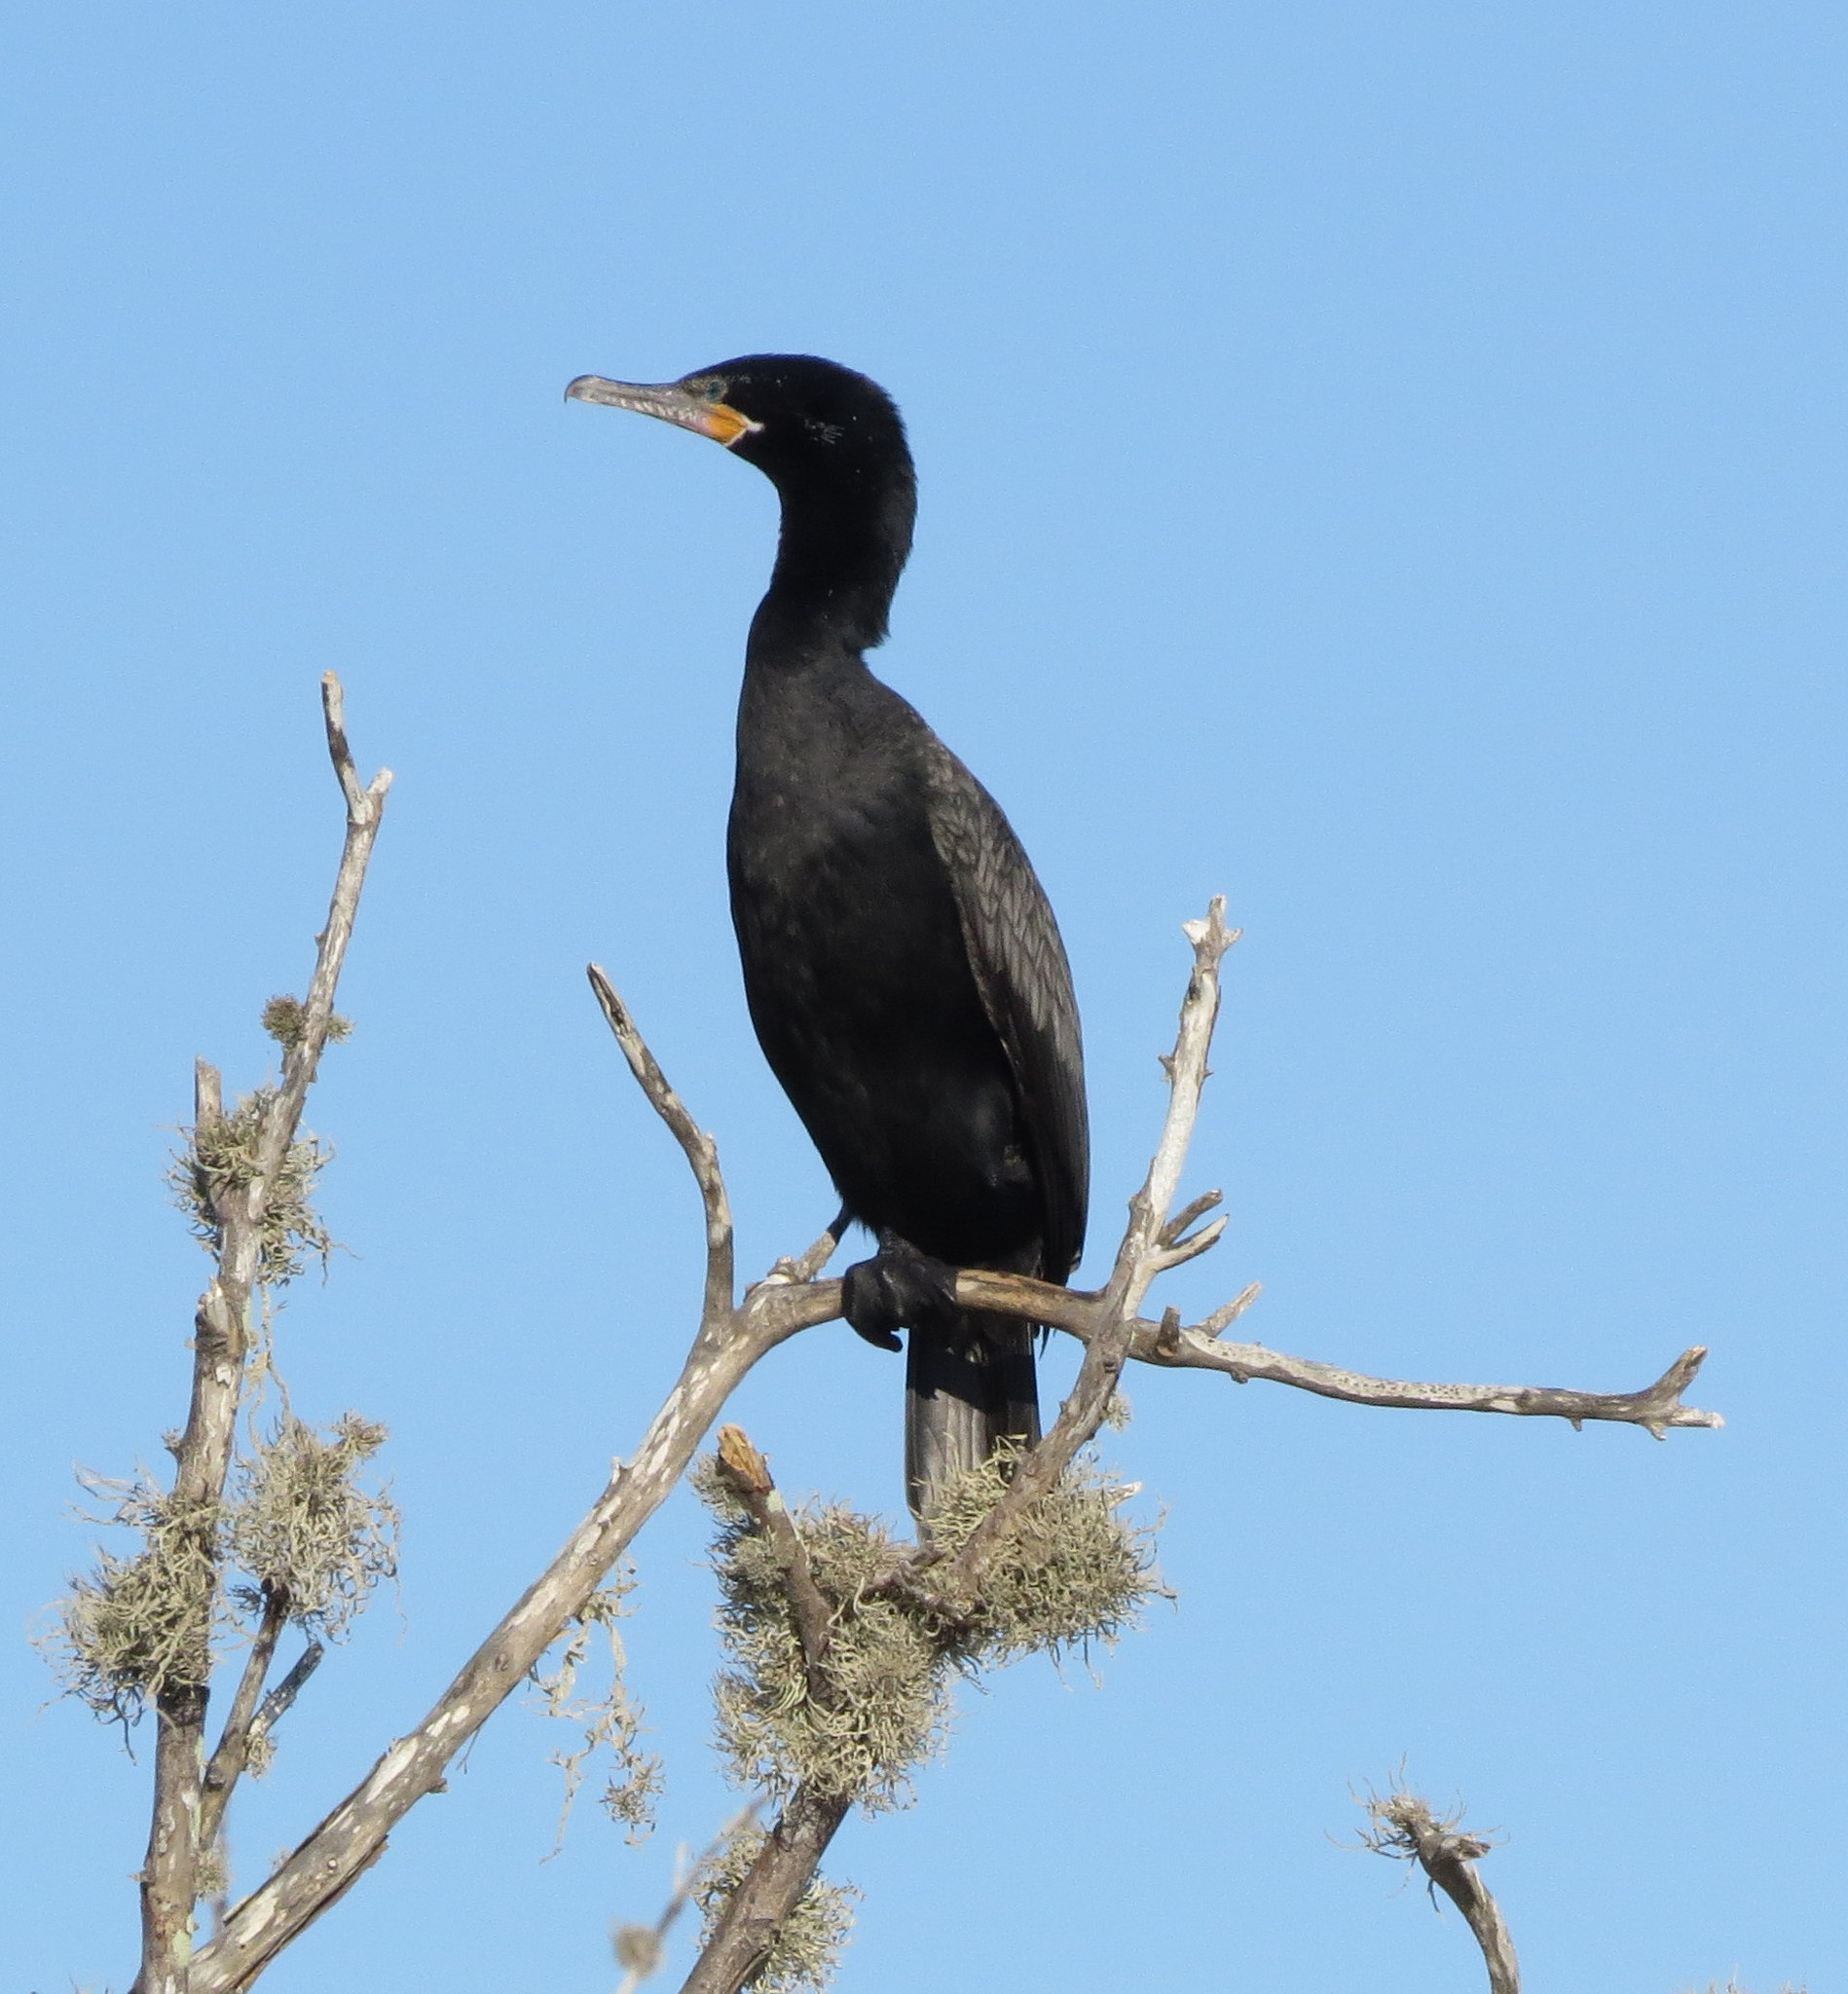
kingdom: Animalia
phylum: Chordata
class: Aves
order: Suliformes
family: Phalacrocoracidae
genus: Phalacrocorax
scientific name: Phalacrocorax brasilianus
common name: Neotropic cormorant
